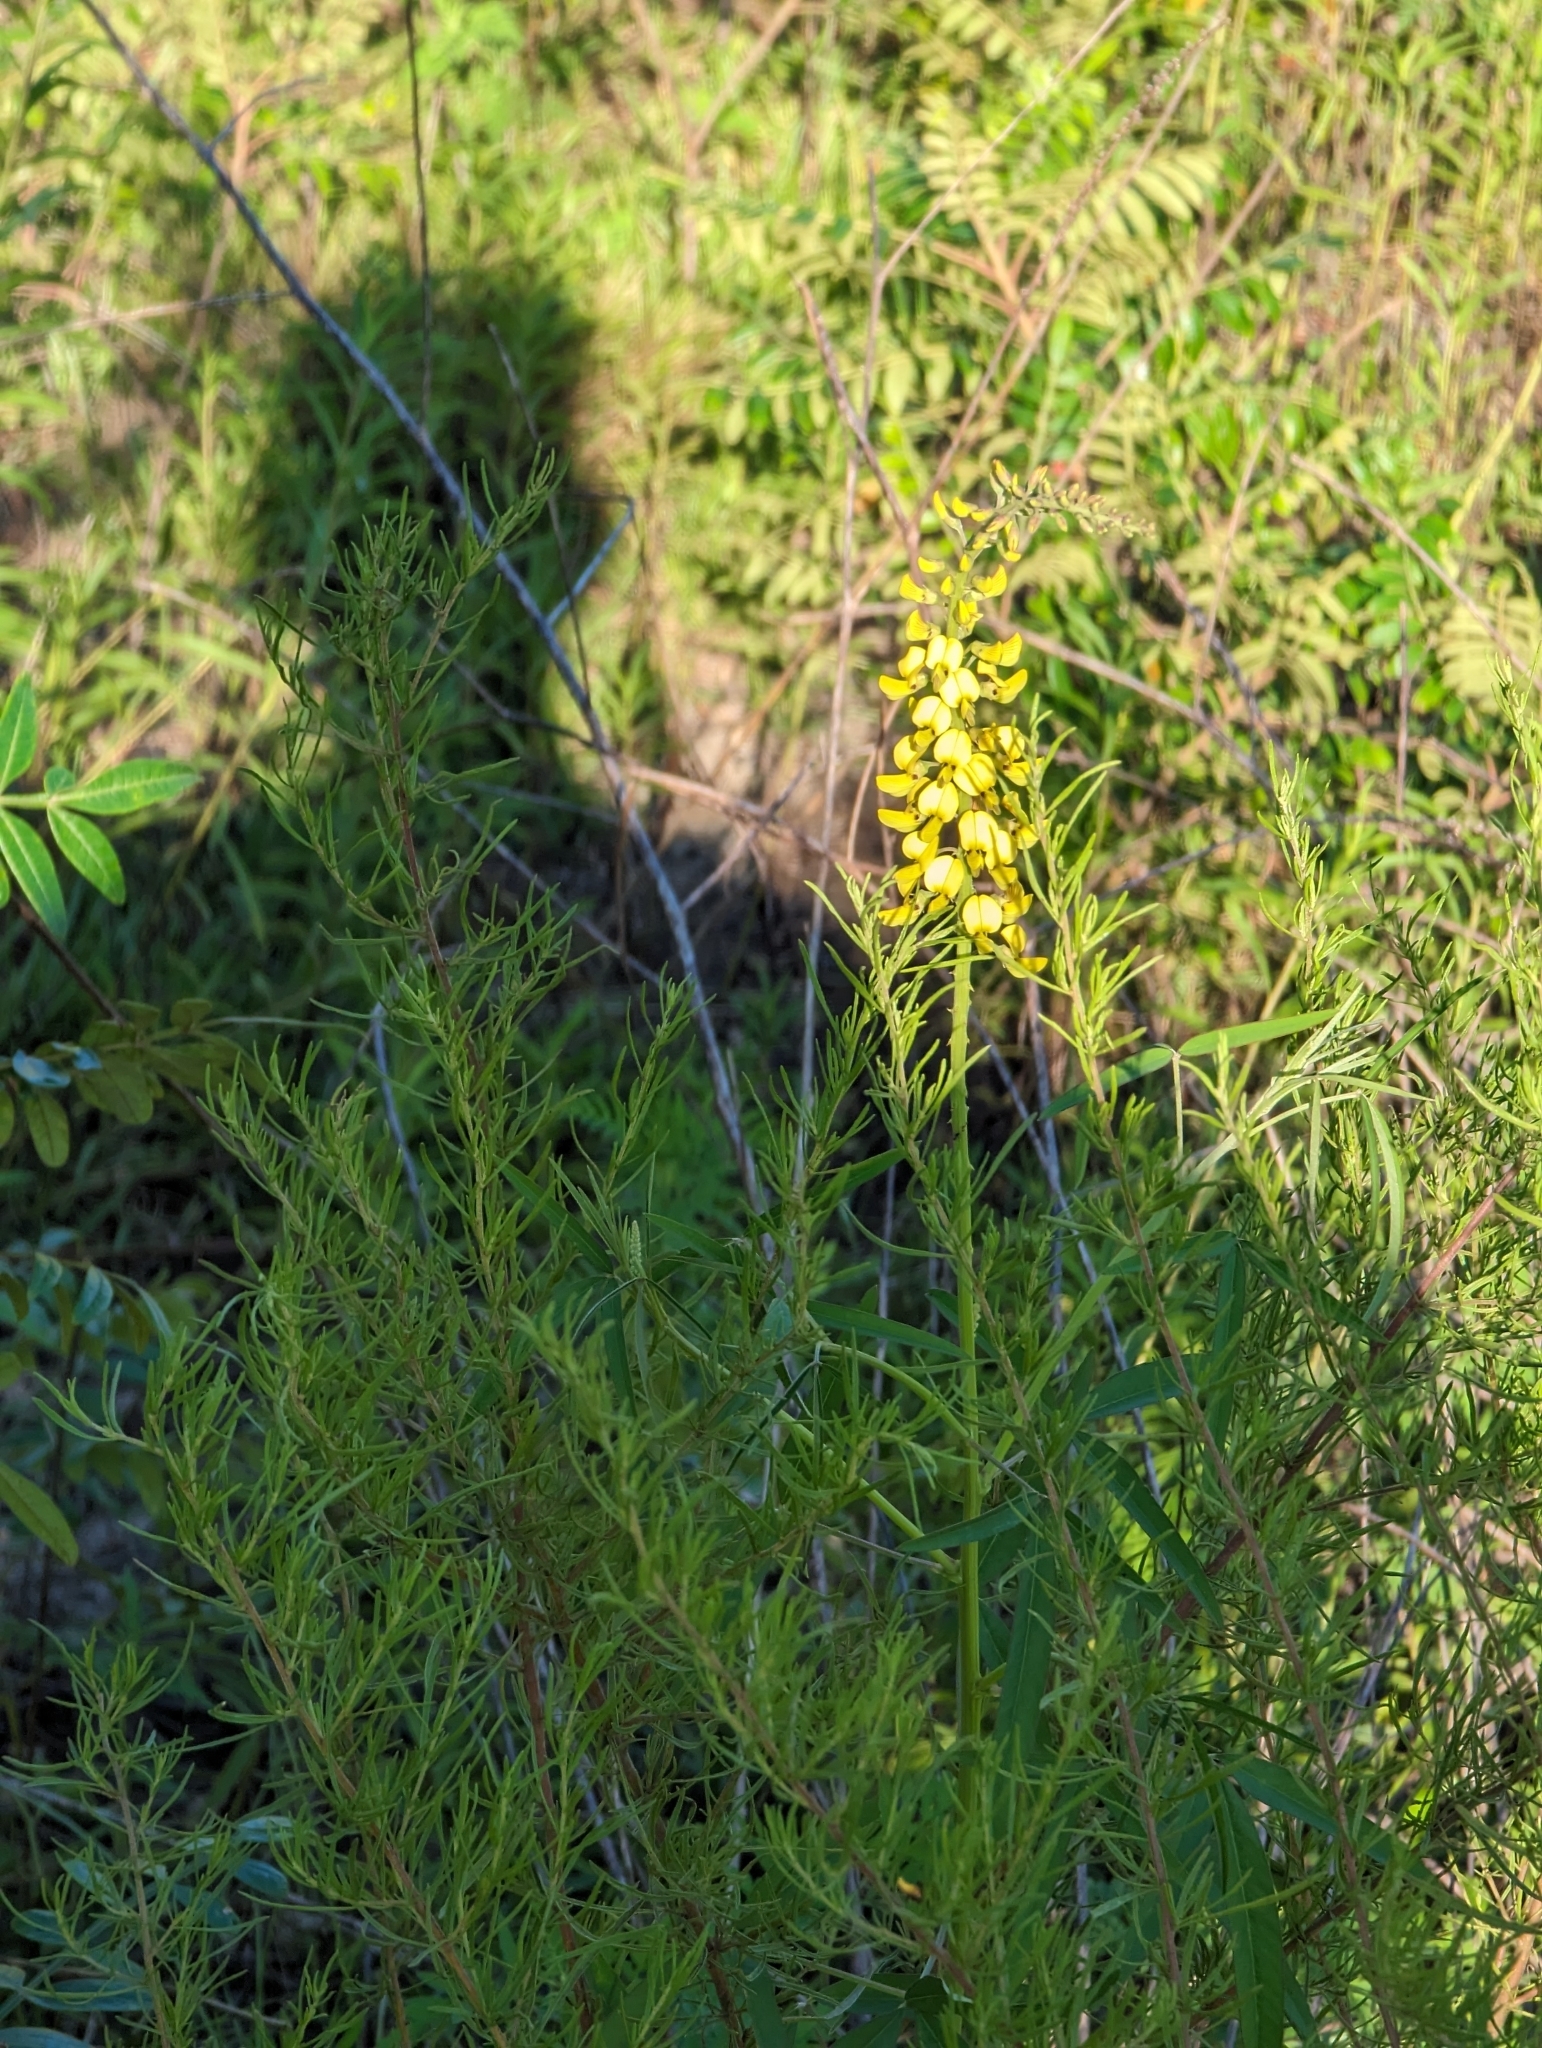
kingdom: Plantae
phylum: Tracheophyta
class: Magnoliopsida
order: Fabales
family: Fabaceae
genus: Crotalaria
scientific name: Crotalaria lanceolata
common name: Lanceleaf rattlebox
